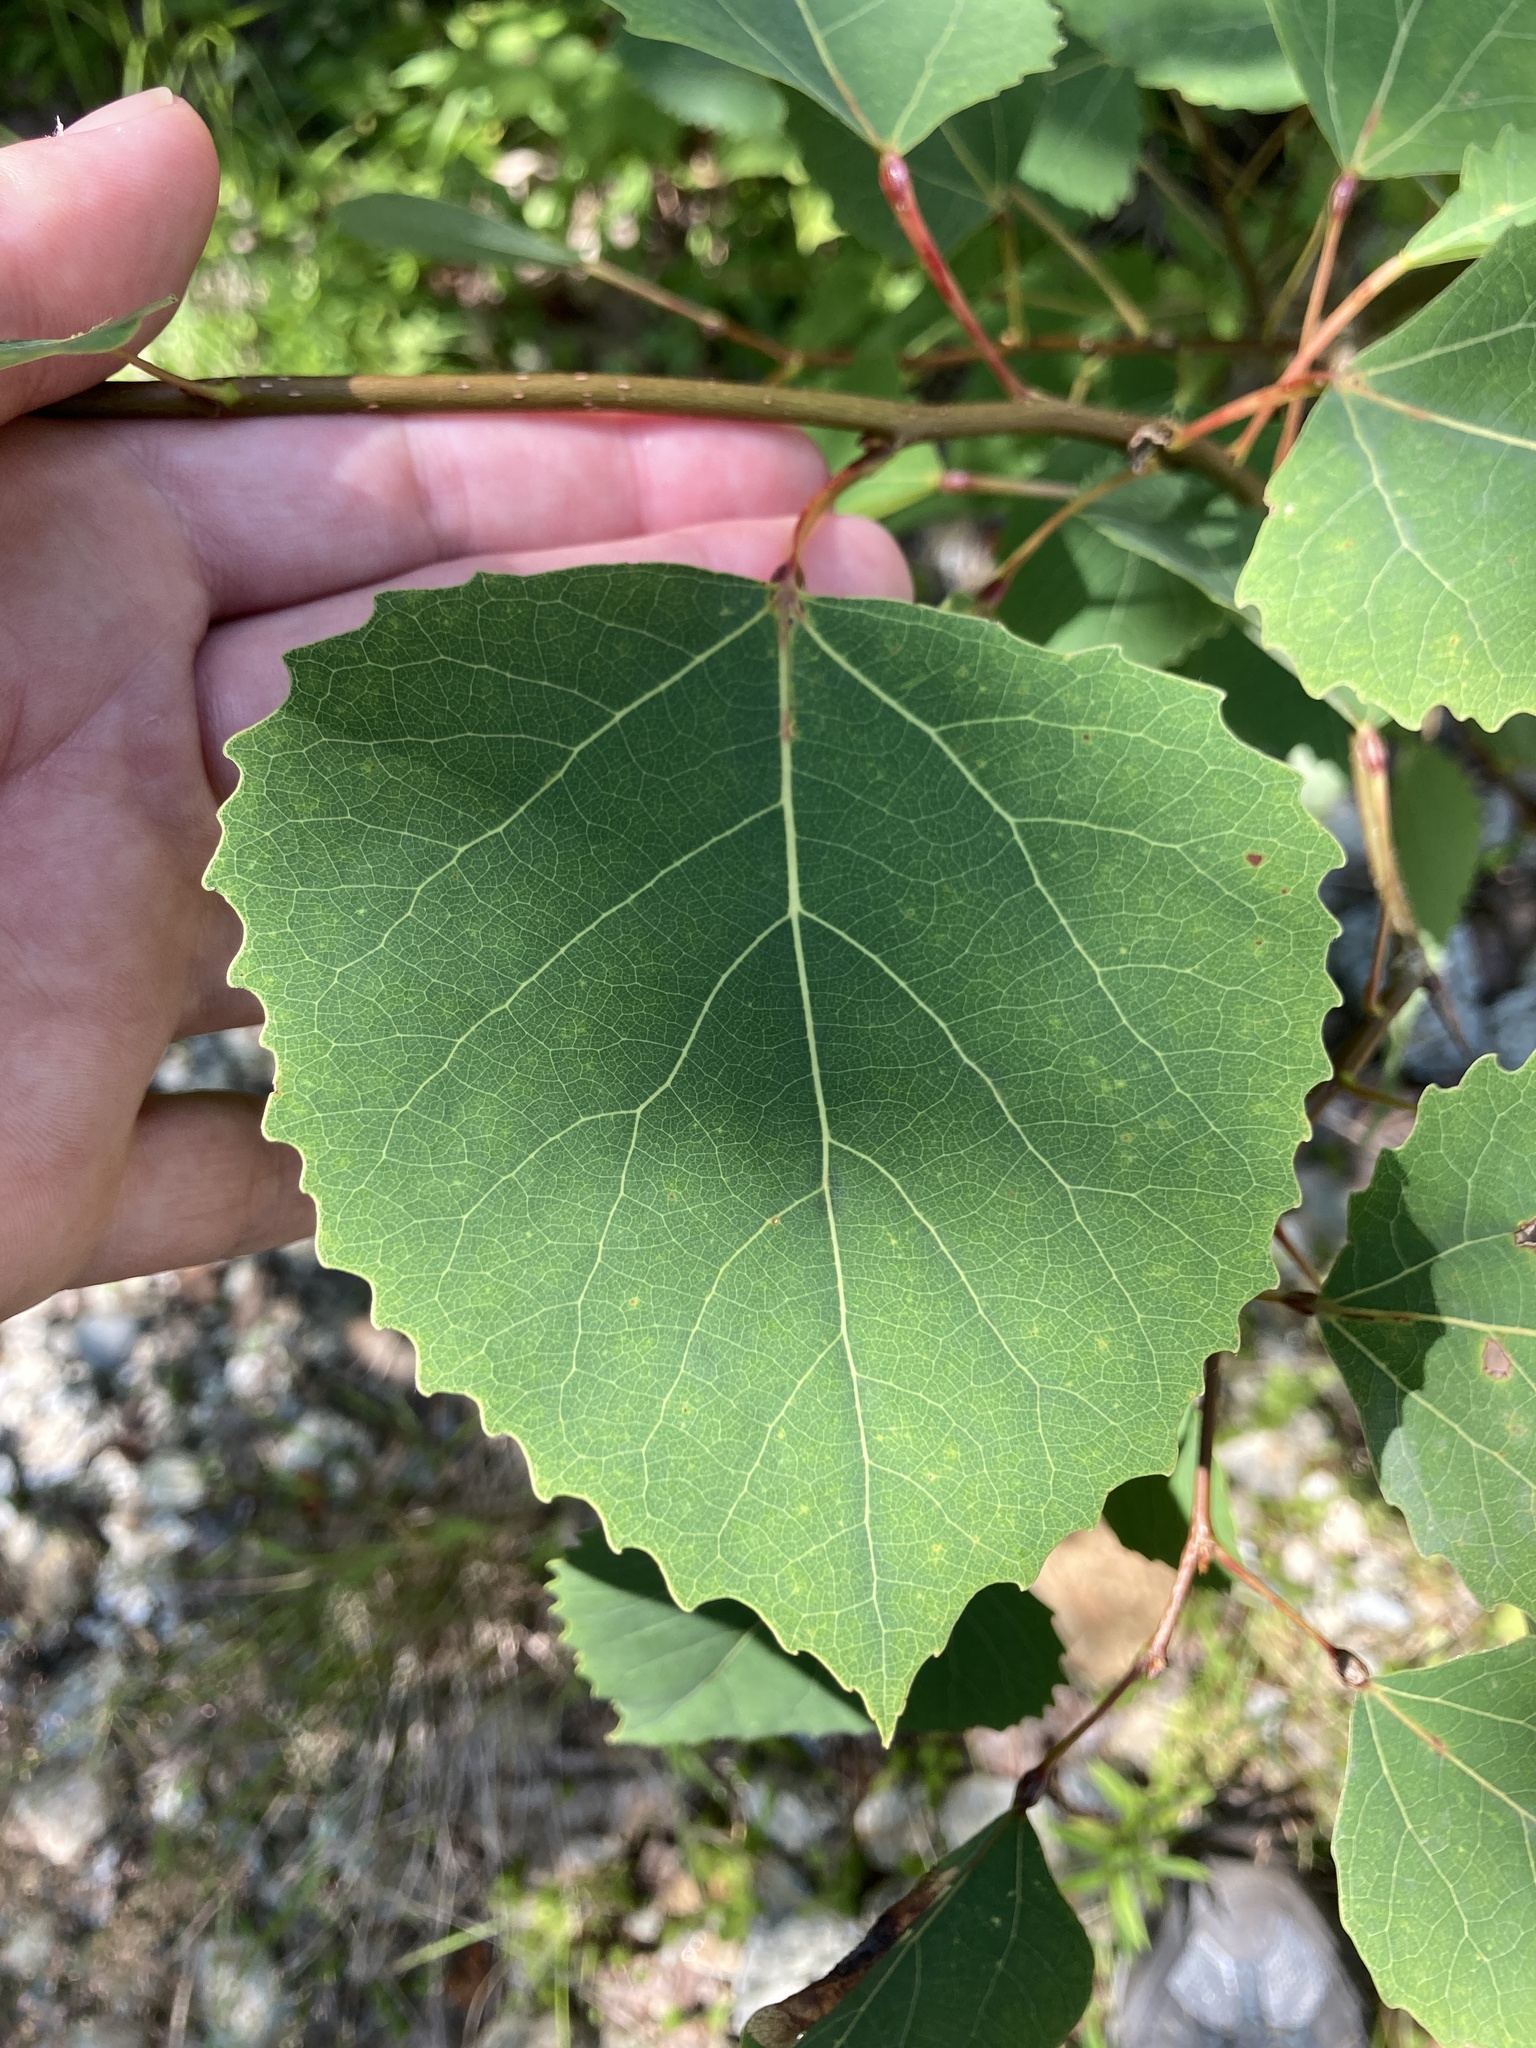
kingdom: Plantae
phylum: Tracheophyta
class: Magnoliopsida
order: Malpighiales
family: Salicaceae
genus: Populus
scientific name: Populus grandidentata
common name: Bigtooth aspen
